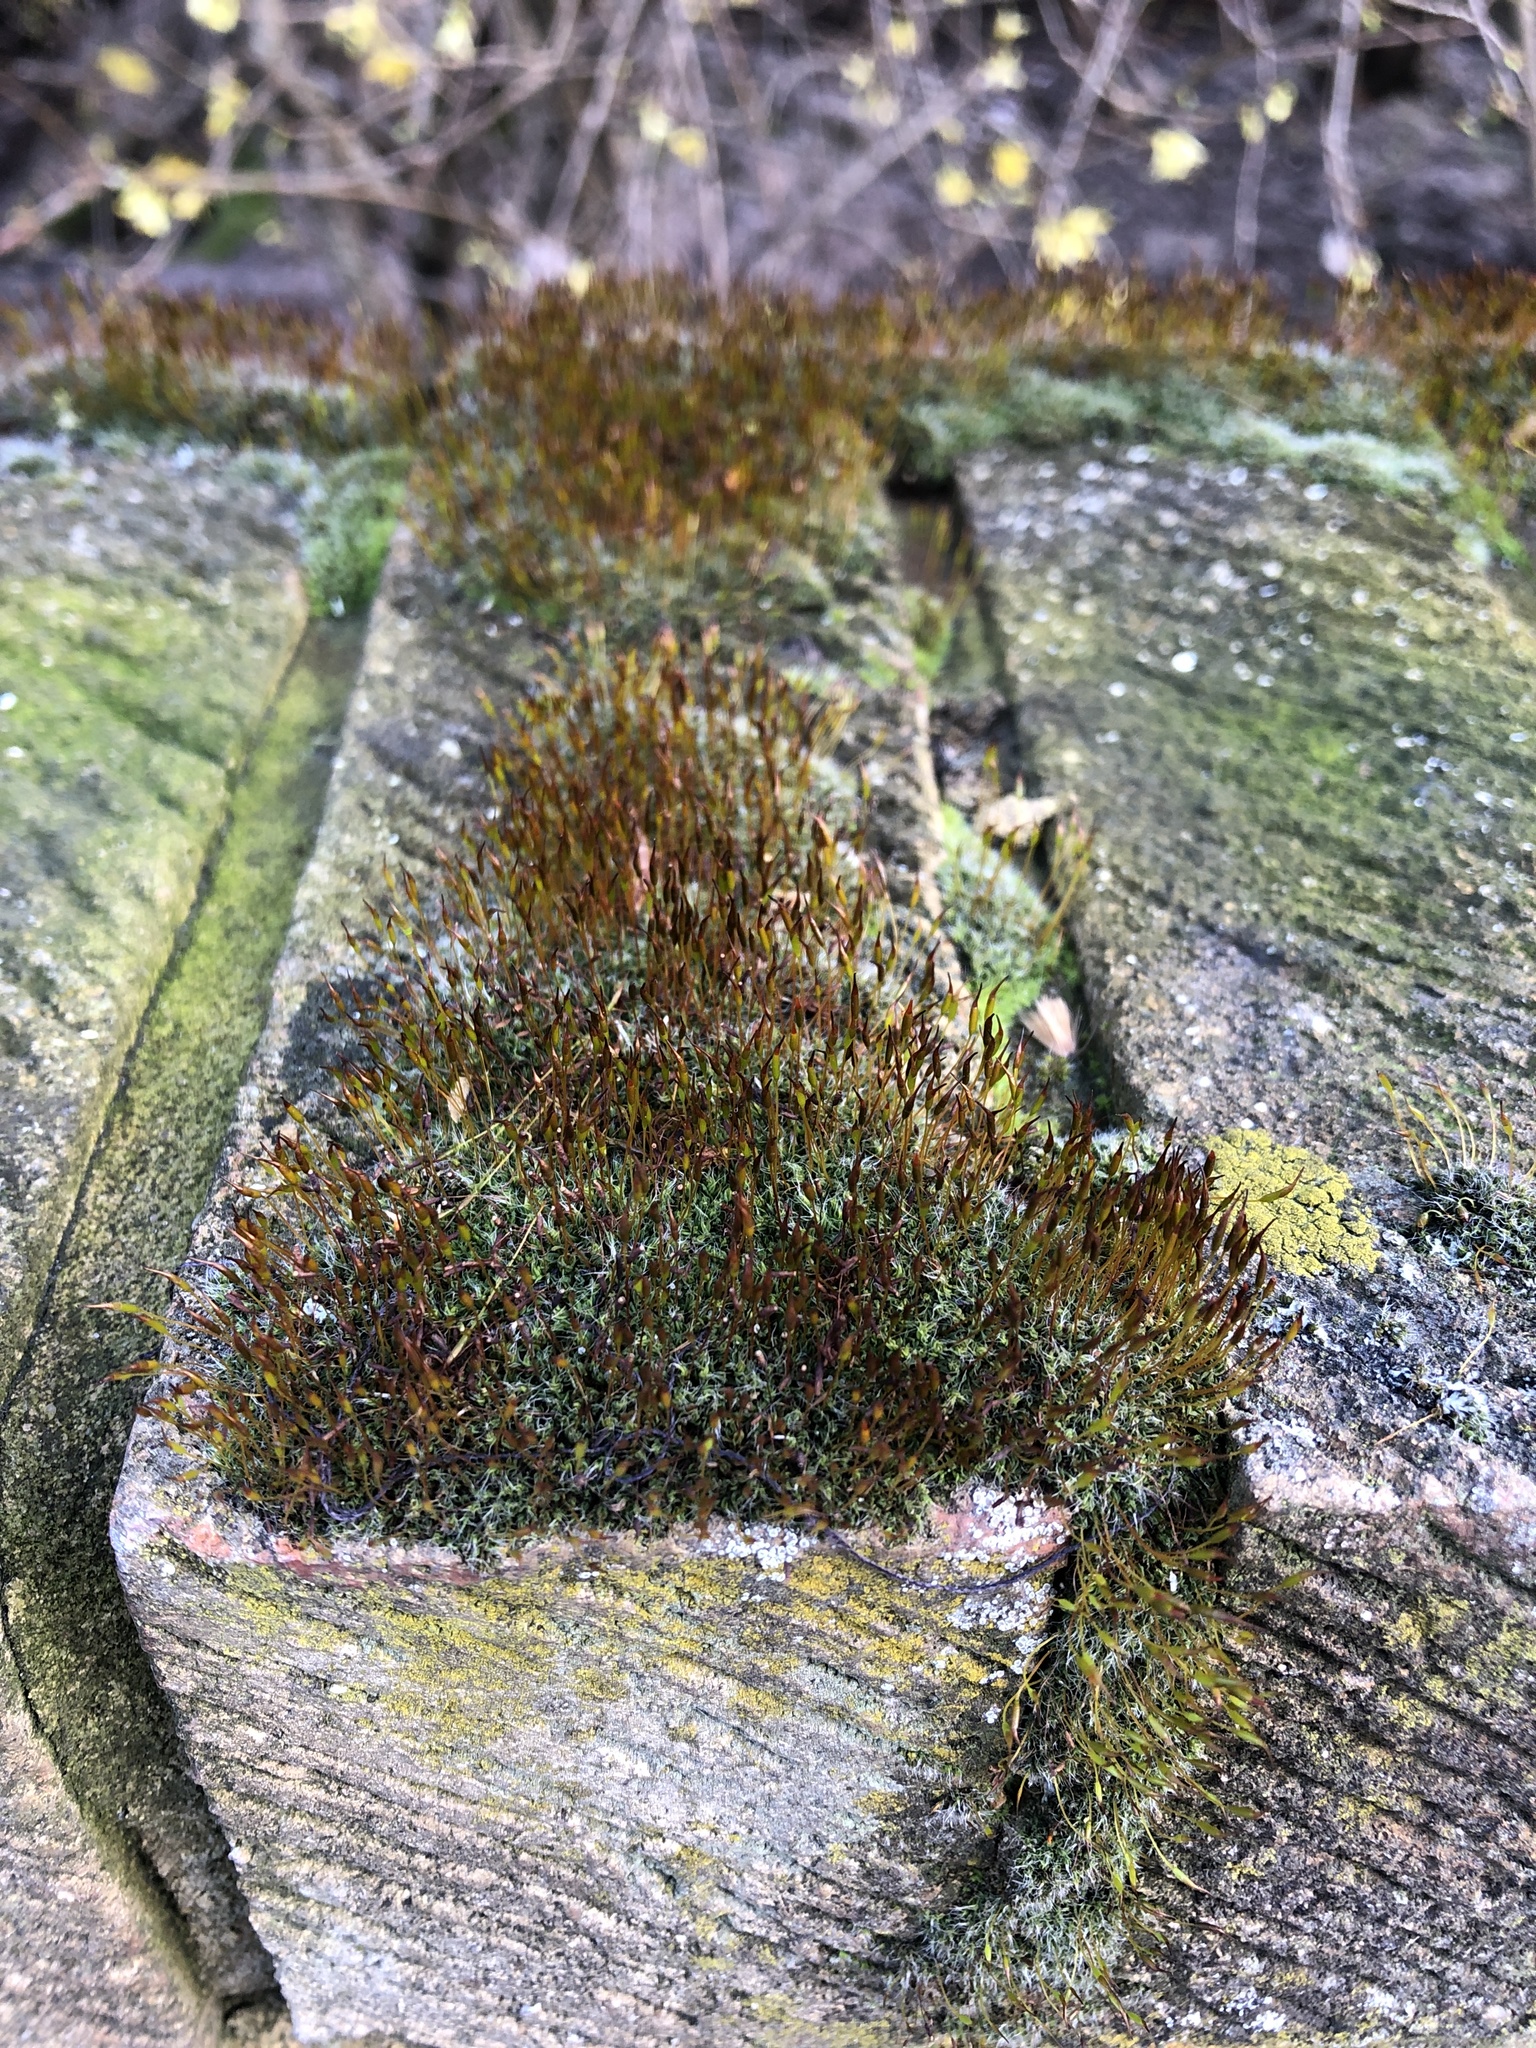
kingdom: Plantae
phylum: Bryophyta
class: Bryopsida
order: Pottiales
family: Pottiaceae
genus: Tortula
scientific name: Tortula muralis
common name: Wall screw-moss
